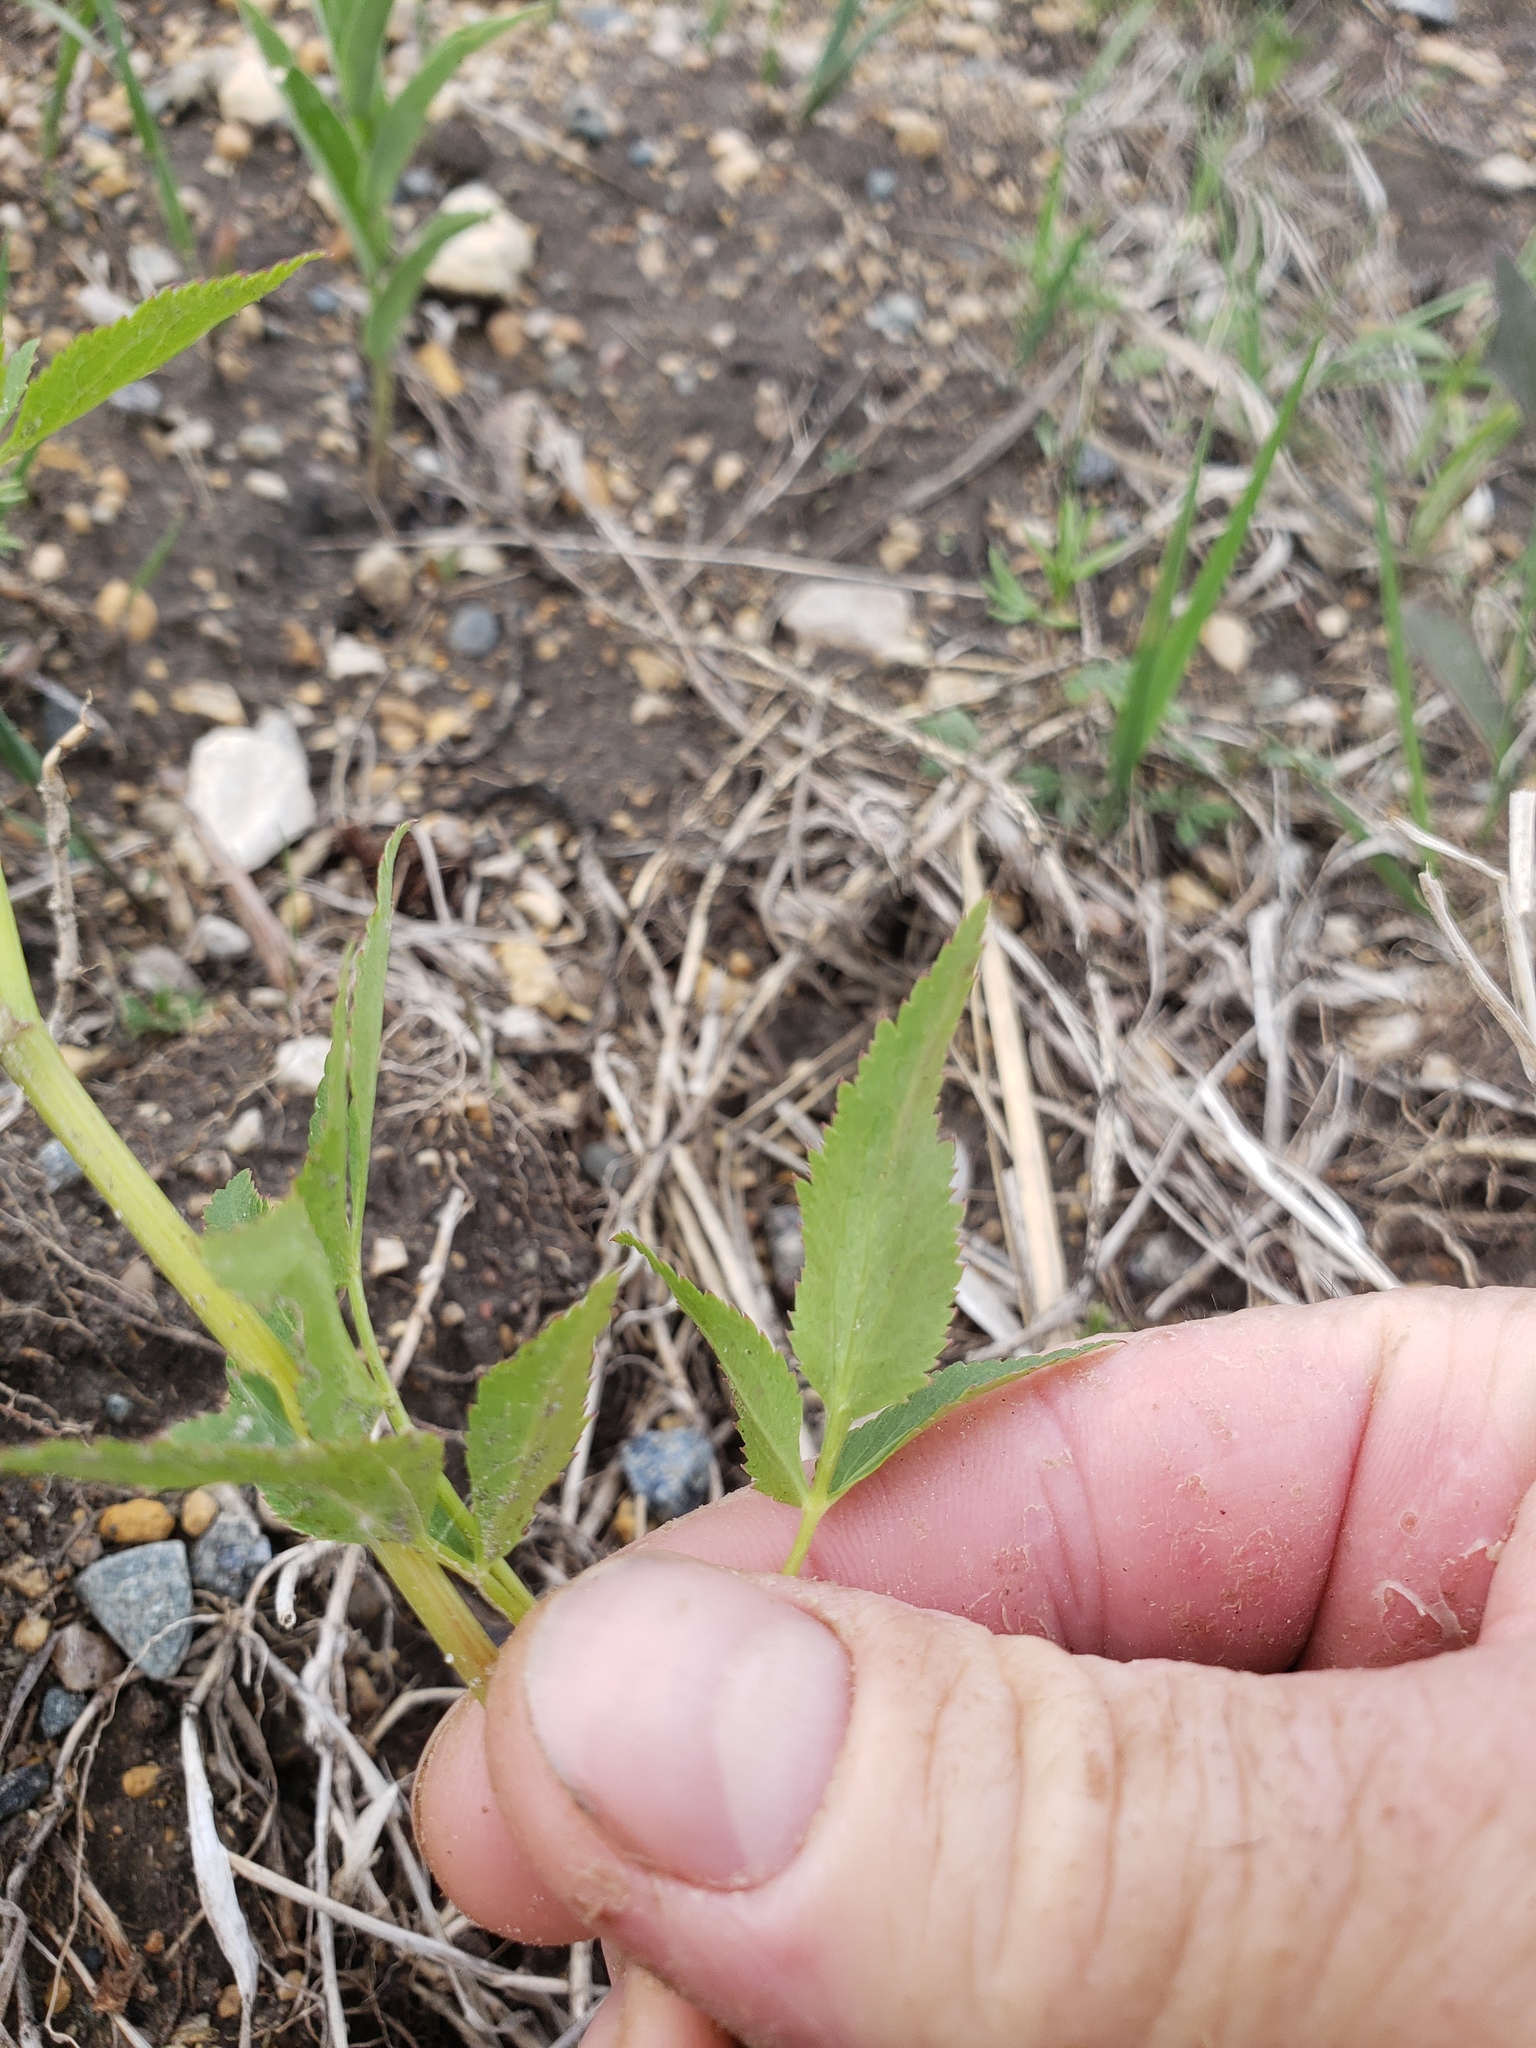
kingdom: Plantae
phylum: Tracheophyta
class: Magnoliopsida
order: Apiales
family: Apiaceae
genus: Zizia
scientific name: Zizia aurea
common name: Golden alexanders
